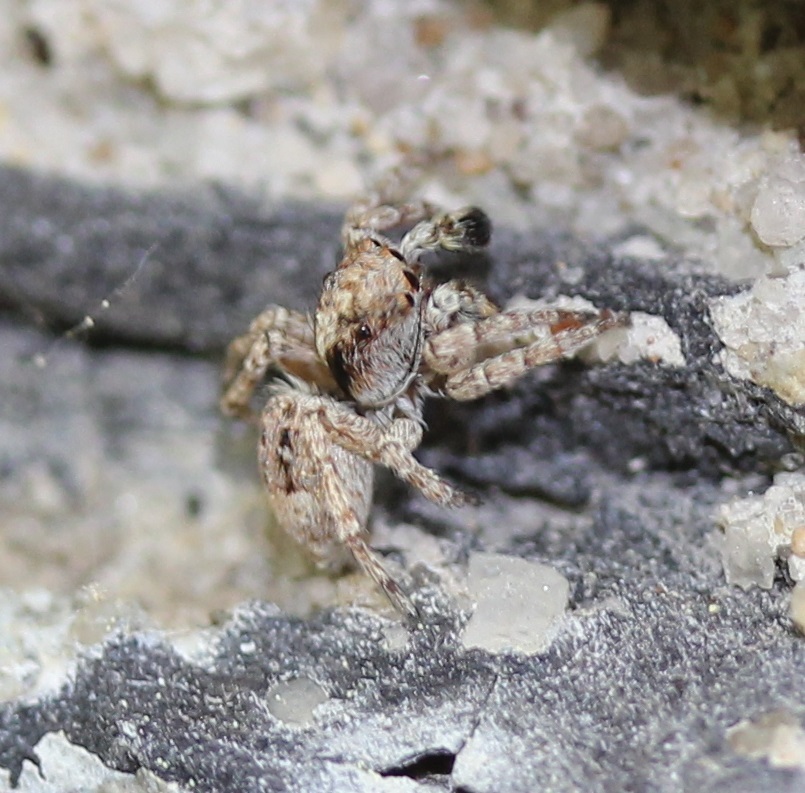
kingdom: Animalia
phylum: Arthropoda
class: Arachnida
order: Araneae
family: Salticidae
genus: Attulus
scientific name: Attulus fasciger
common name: Asiatic wall jumping spider
